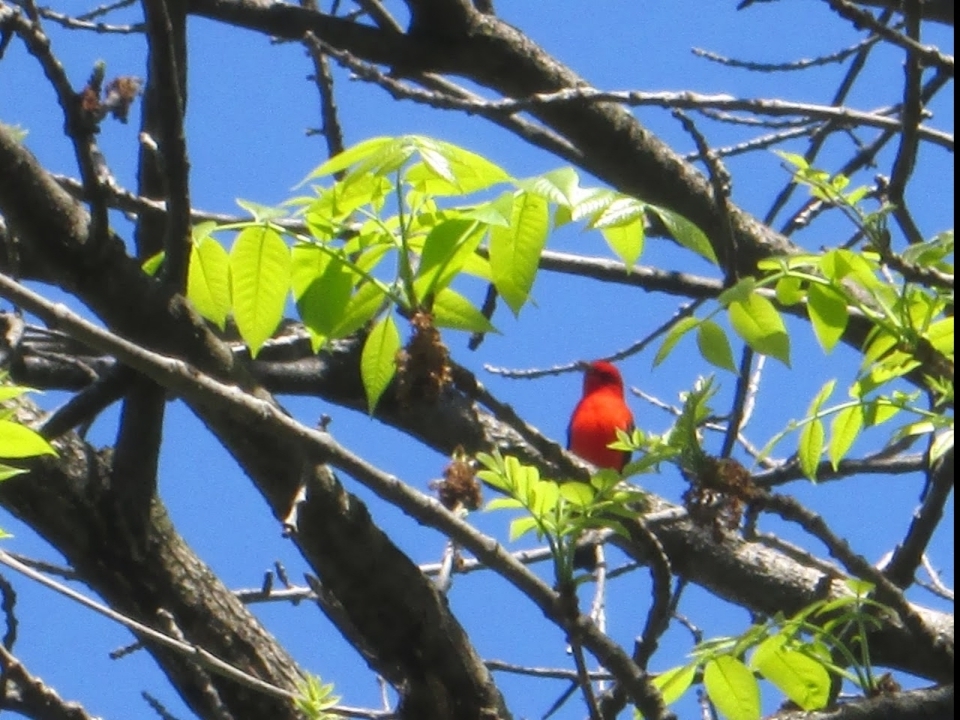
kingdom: Animalia
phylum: Chordata
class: Aves
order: Passeriformes
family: Cardinalidae
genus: Piranga
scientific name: Piranga olivacea
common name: Scarlet tanager
